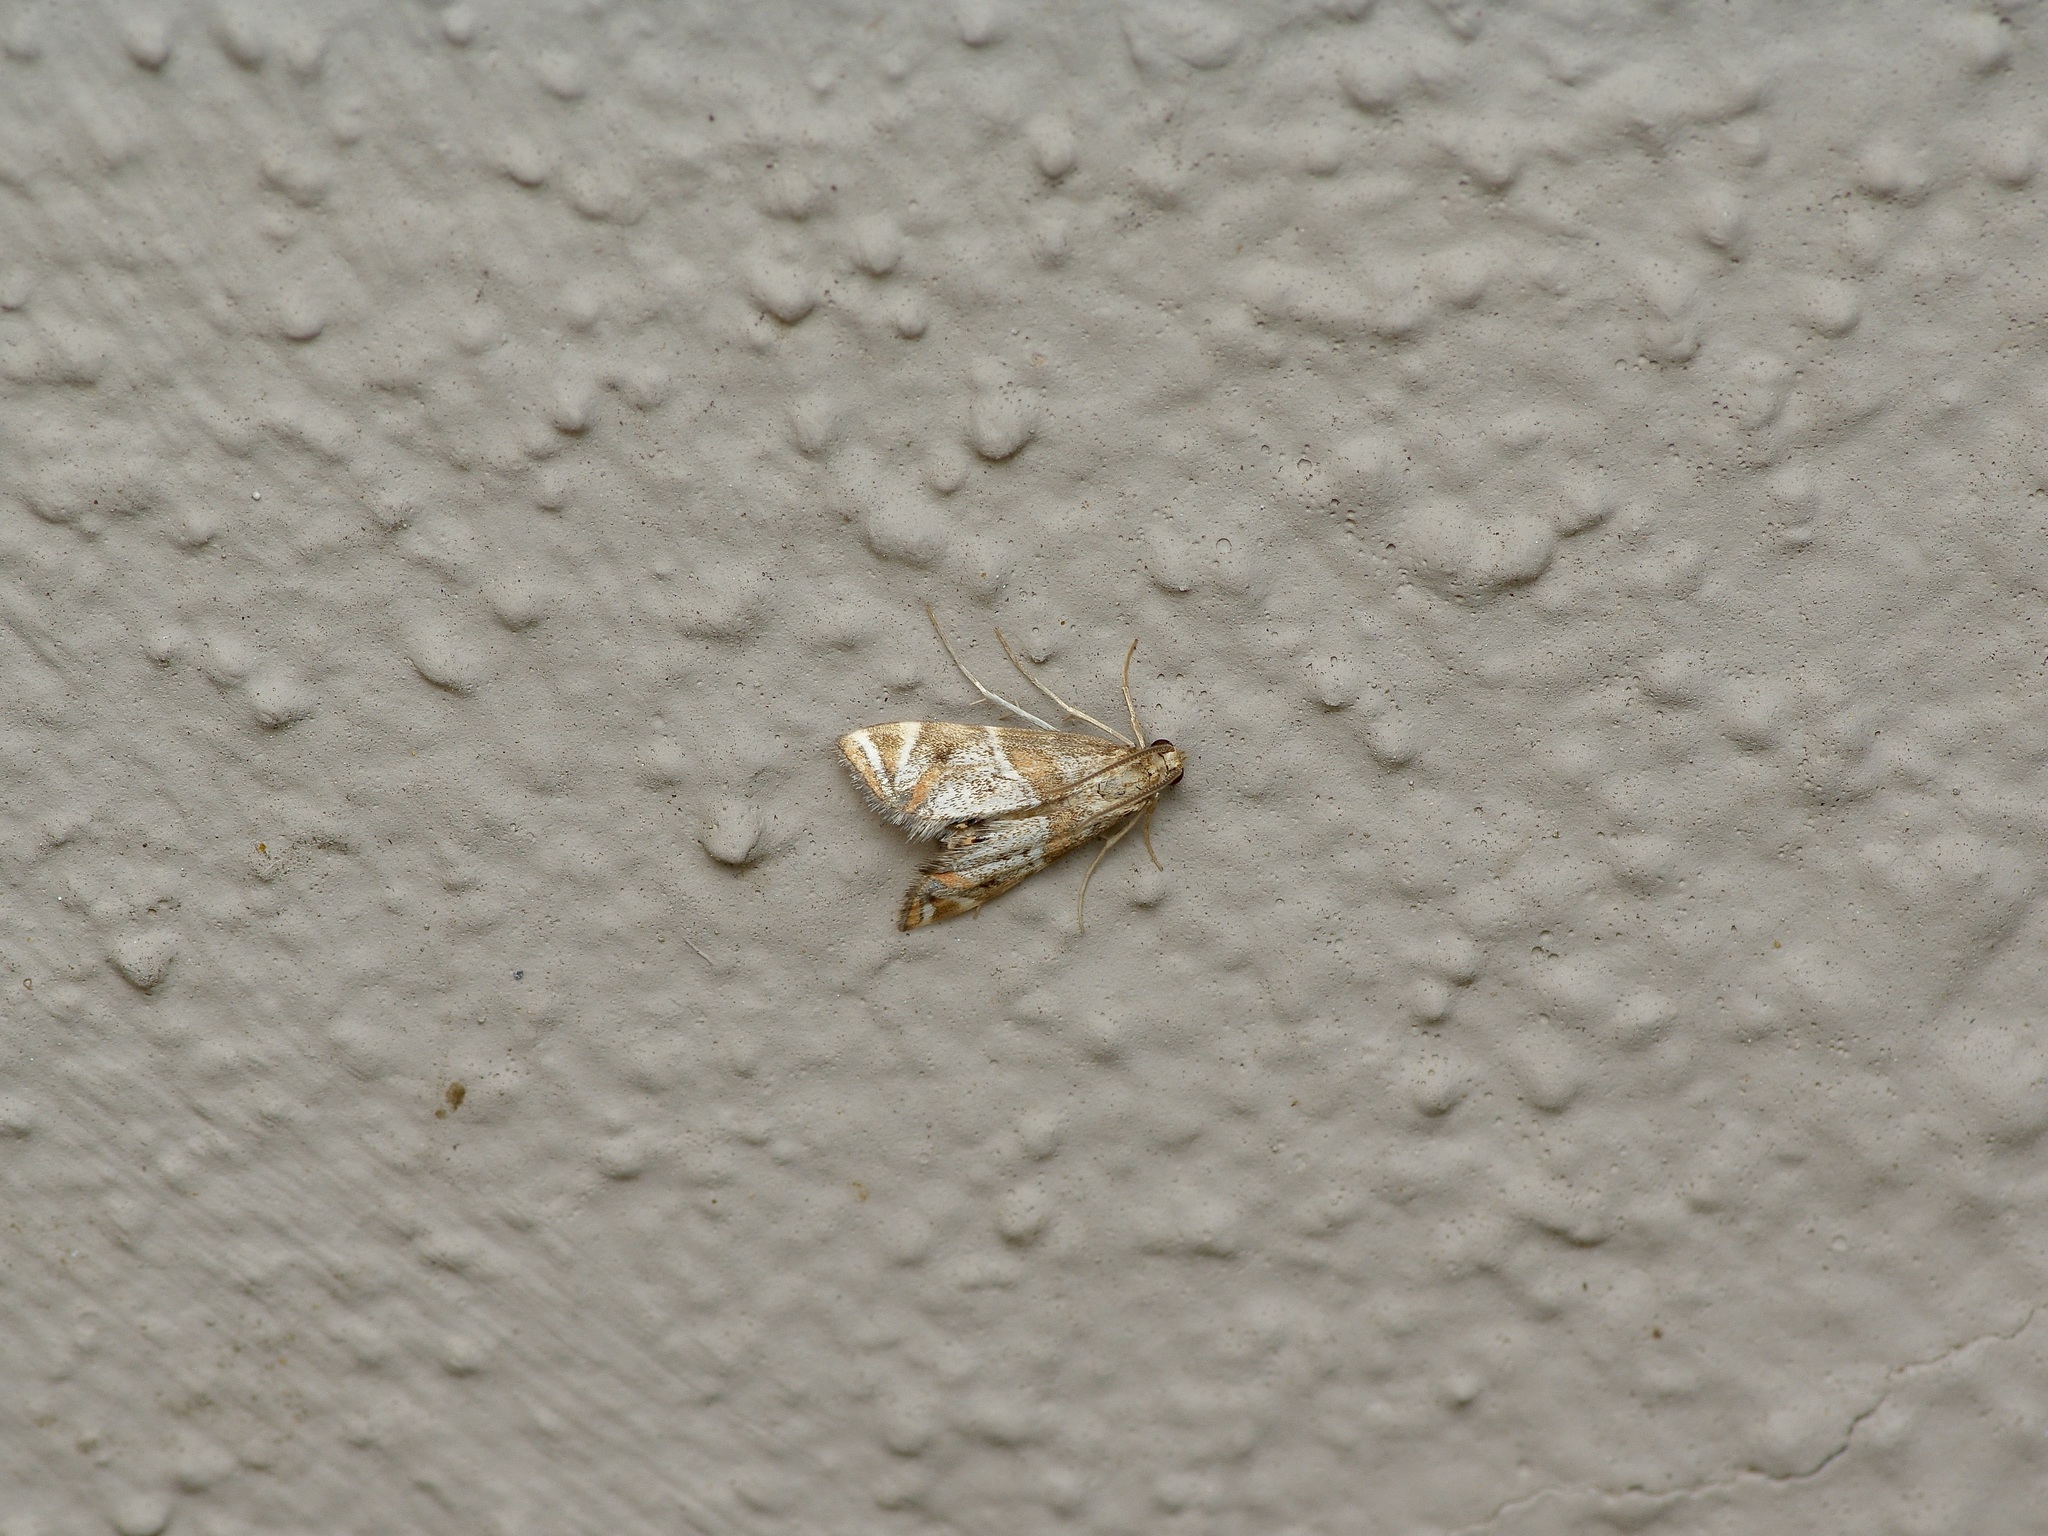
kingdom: Animalia
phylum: Arthropoda
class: Insecta
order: Lepidoptera
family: Crambidae
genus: Petrophila
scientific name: Petrophila jaliscalis
